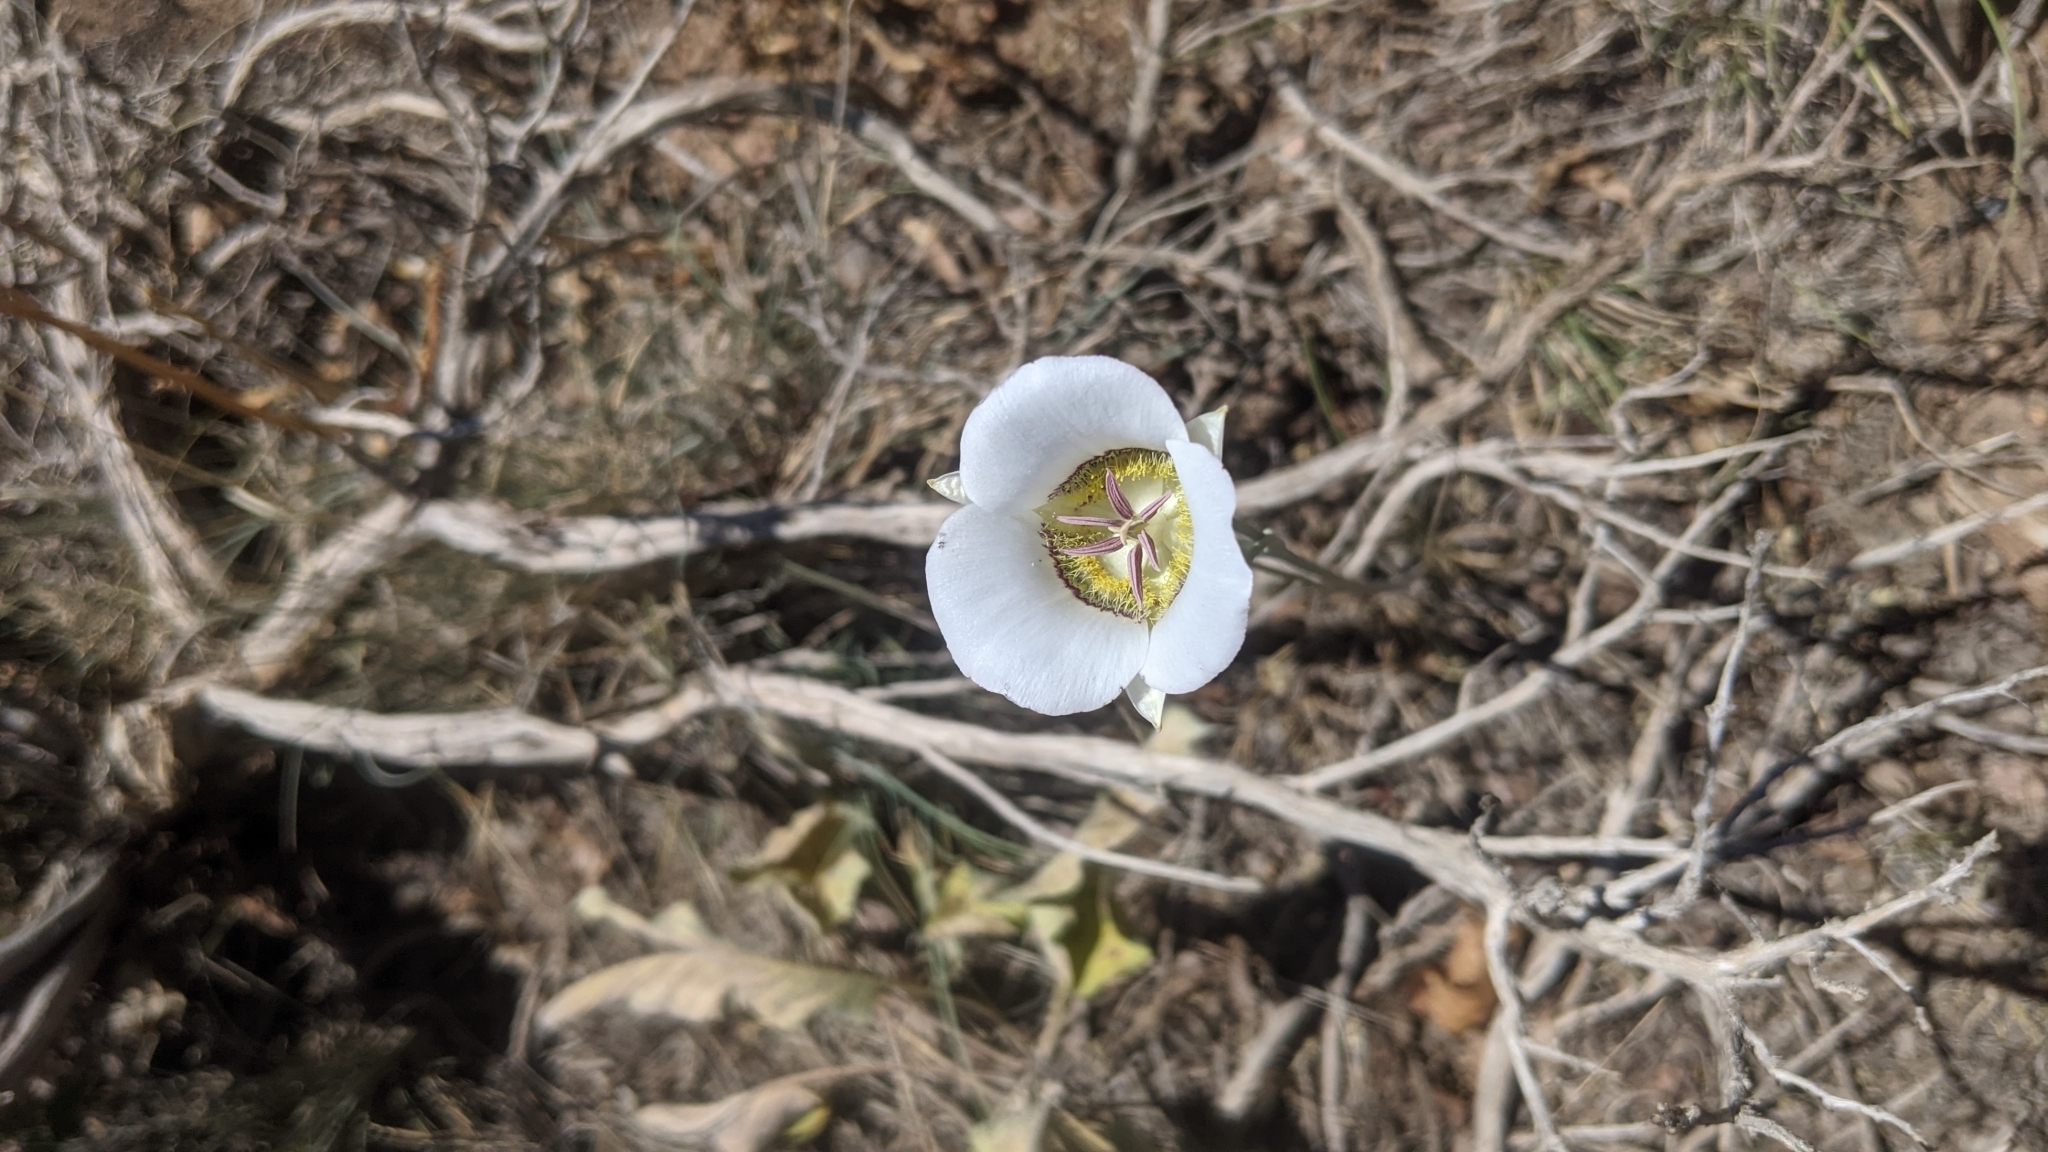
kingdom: Plantae
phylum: Tracheophyta
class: Liliopsida
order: Liliales
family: Liliaceae
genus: Calochortus
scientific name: Calochortus gunnisonii
